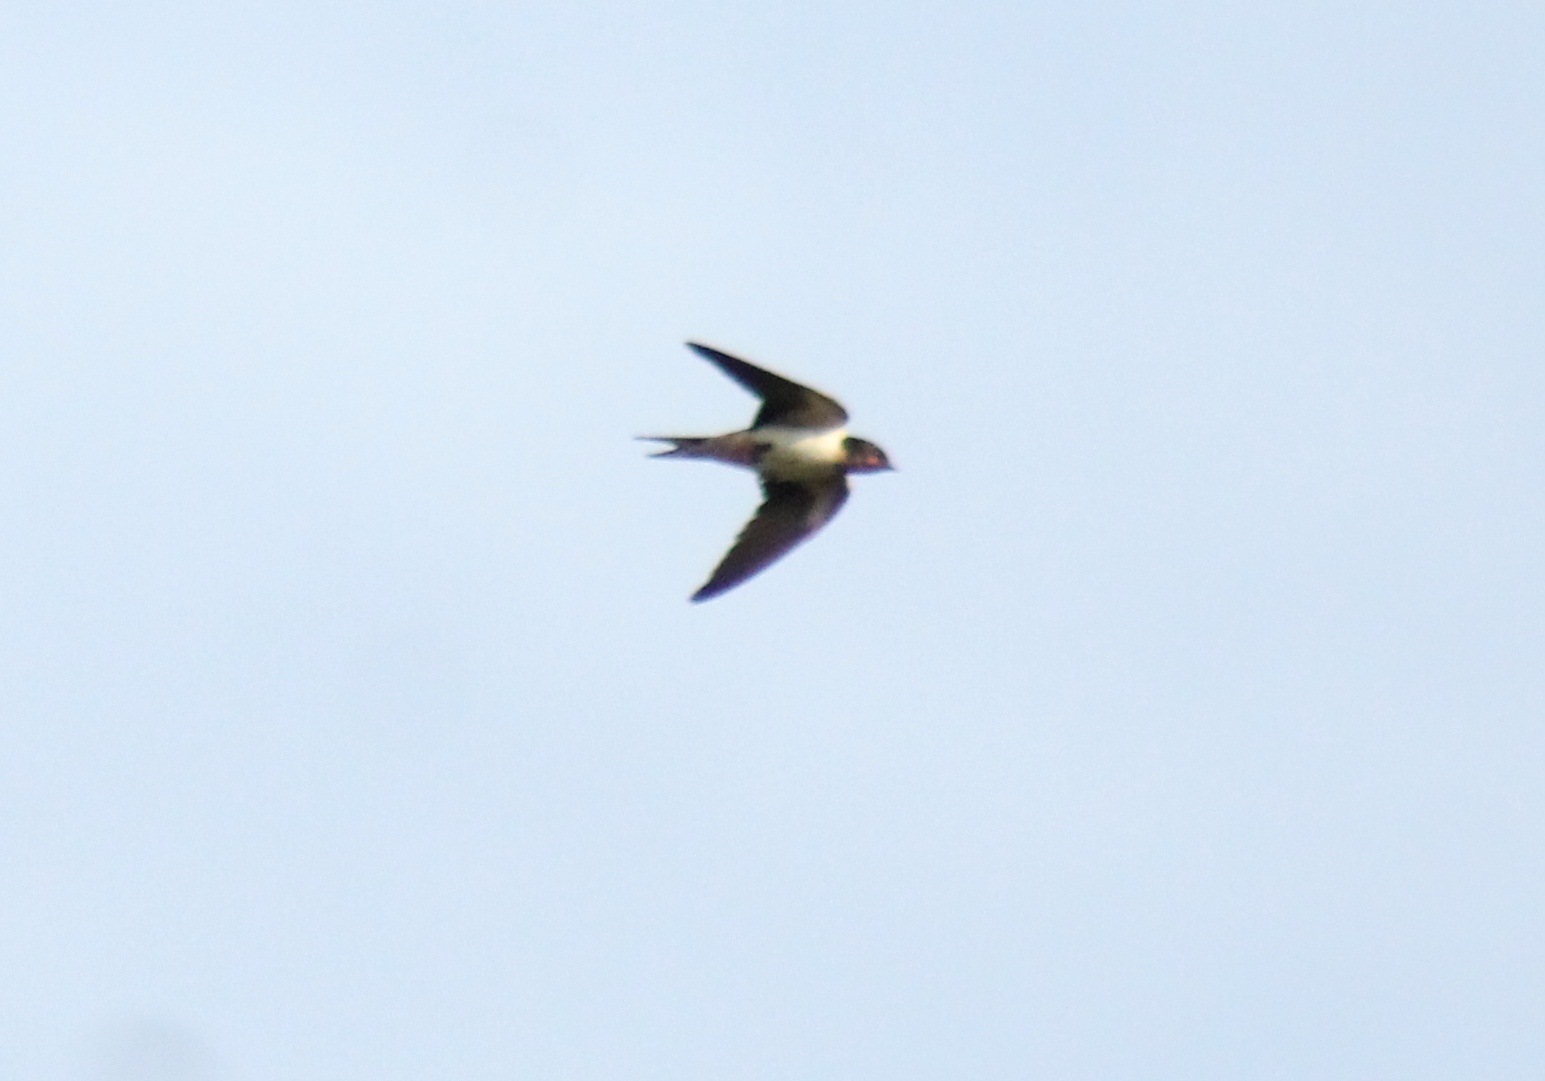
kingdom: Animalia
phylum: Chordata
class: Aves
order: Passeriformes
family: Hirundinidae
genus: Hirundo
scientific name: Hirundo rustica
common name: Barn swallow
